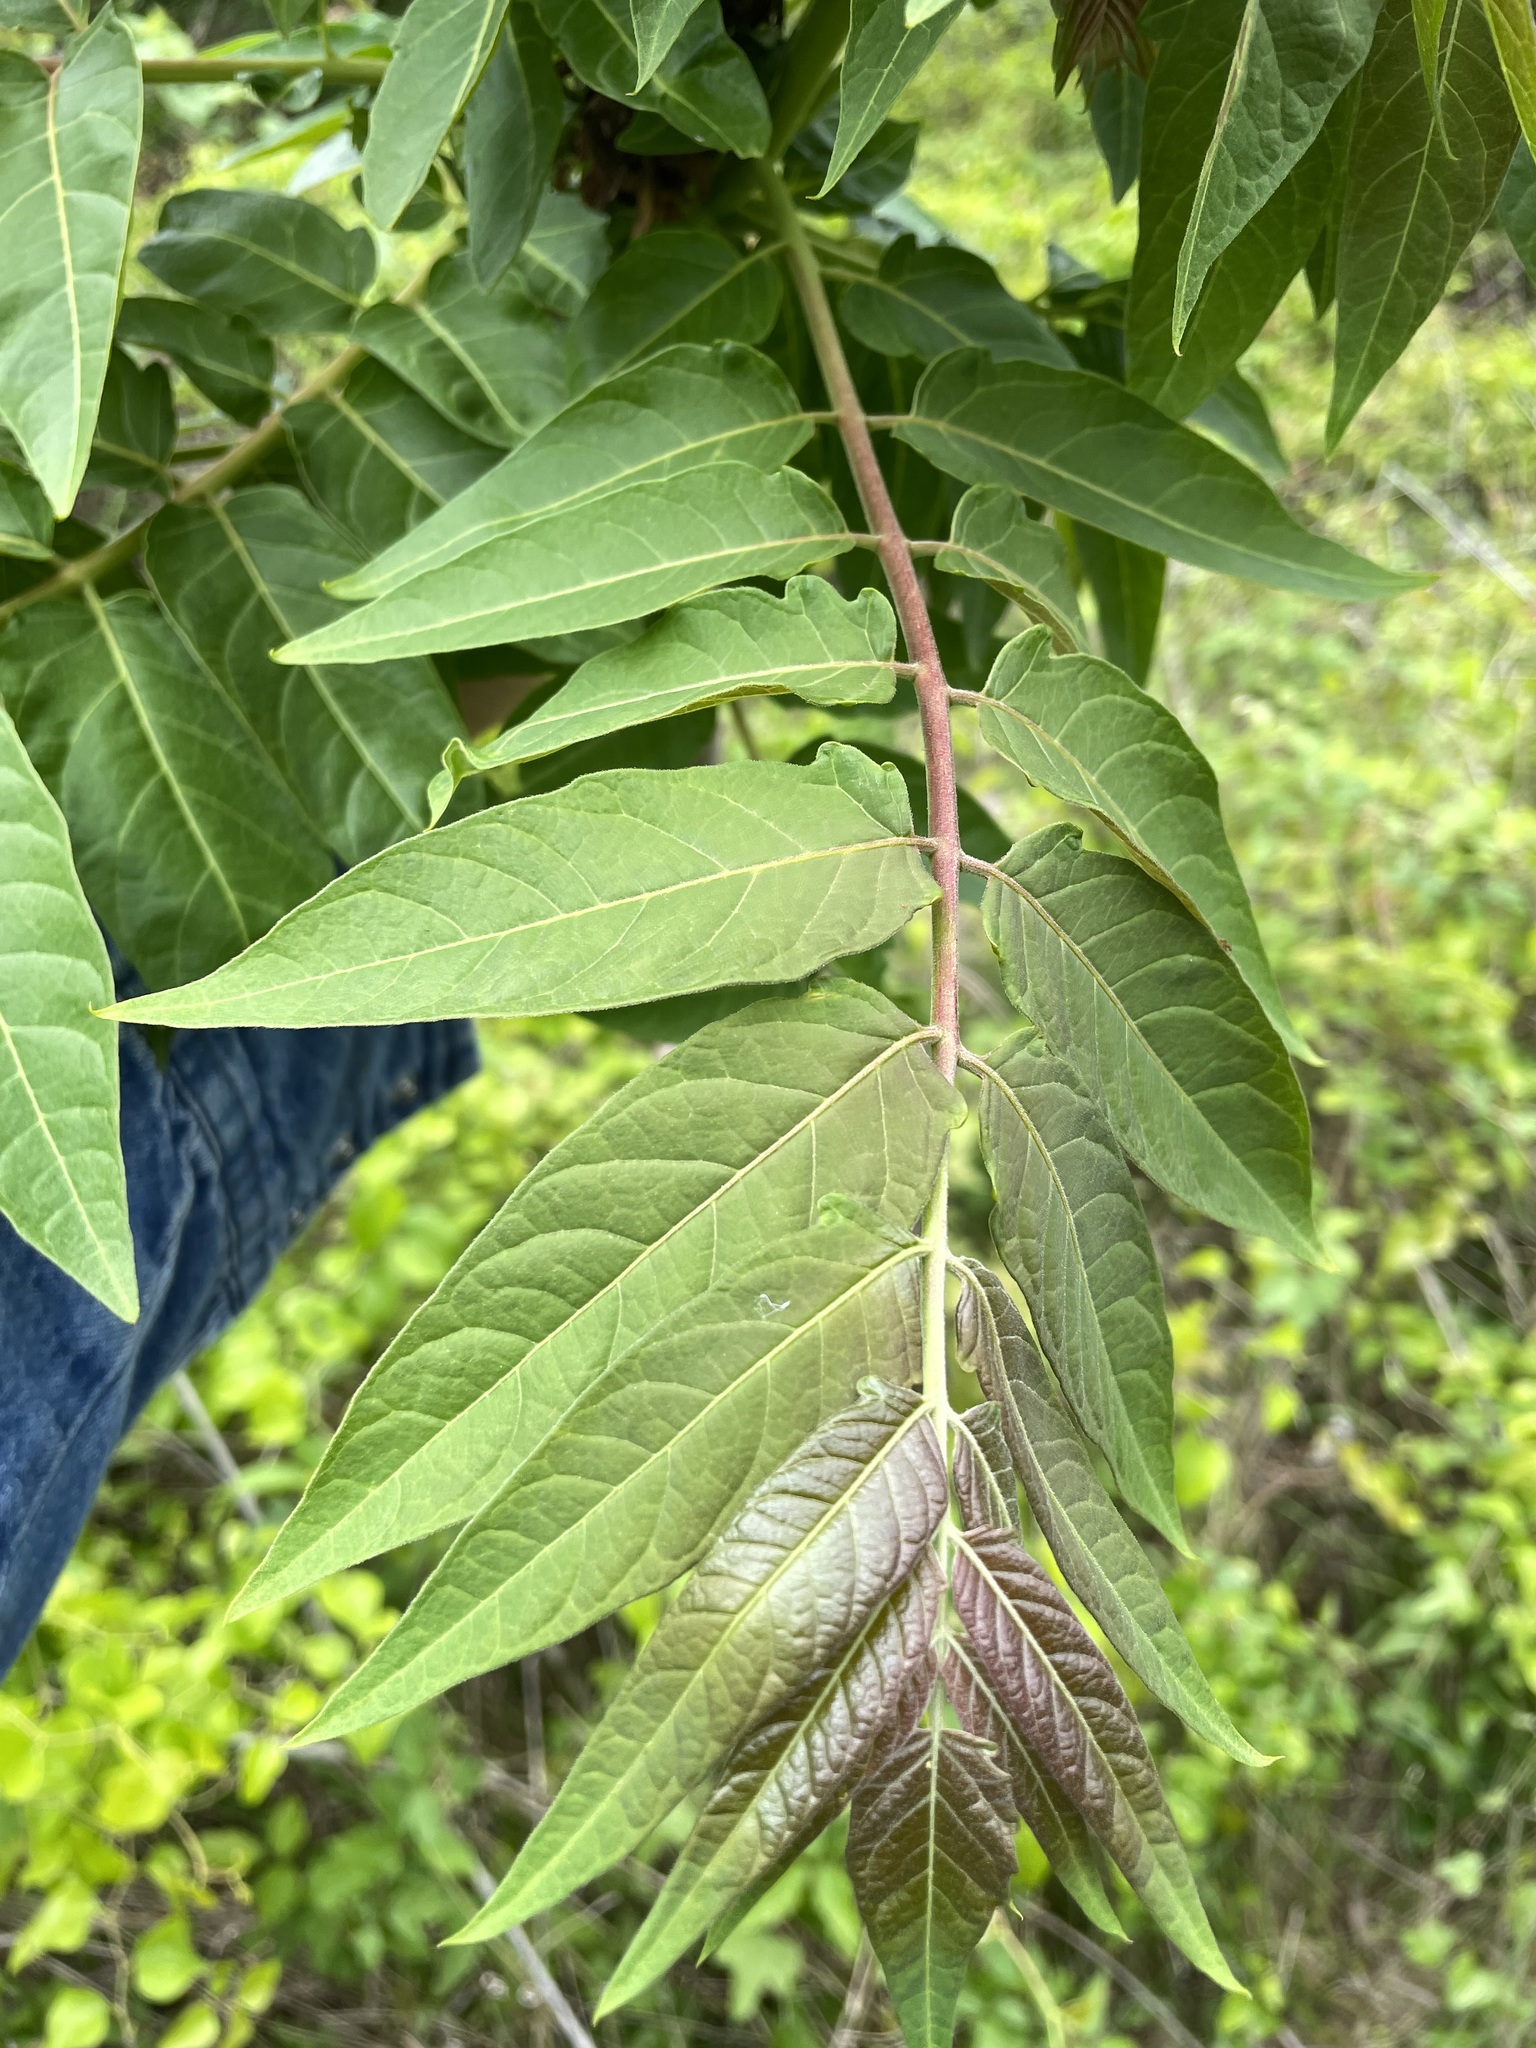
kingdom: Plantae
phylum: Tracheophyta
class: Magnoliopsida
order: Sapindales
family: Simaroubaceae
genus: Ailanthus
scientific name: Ailanthus altissima
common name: Tree-of-heaven
